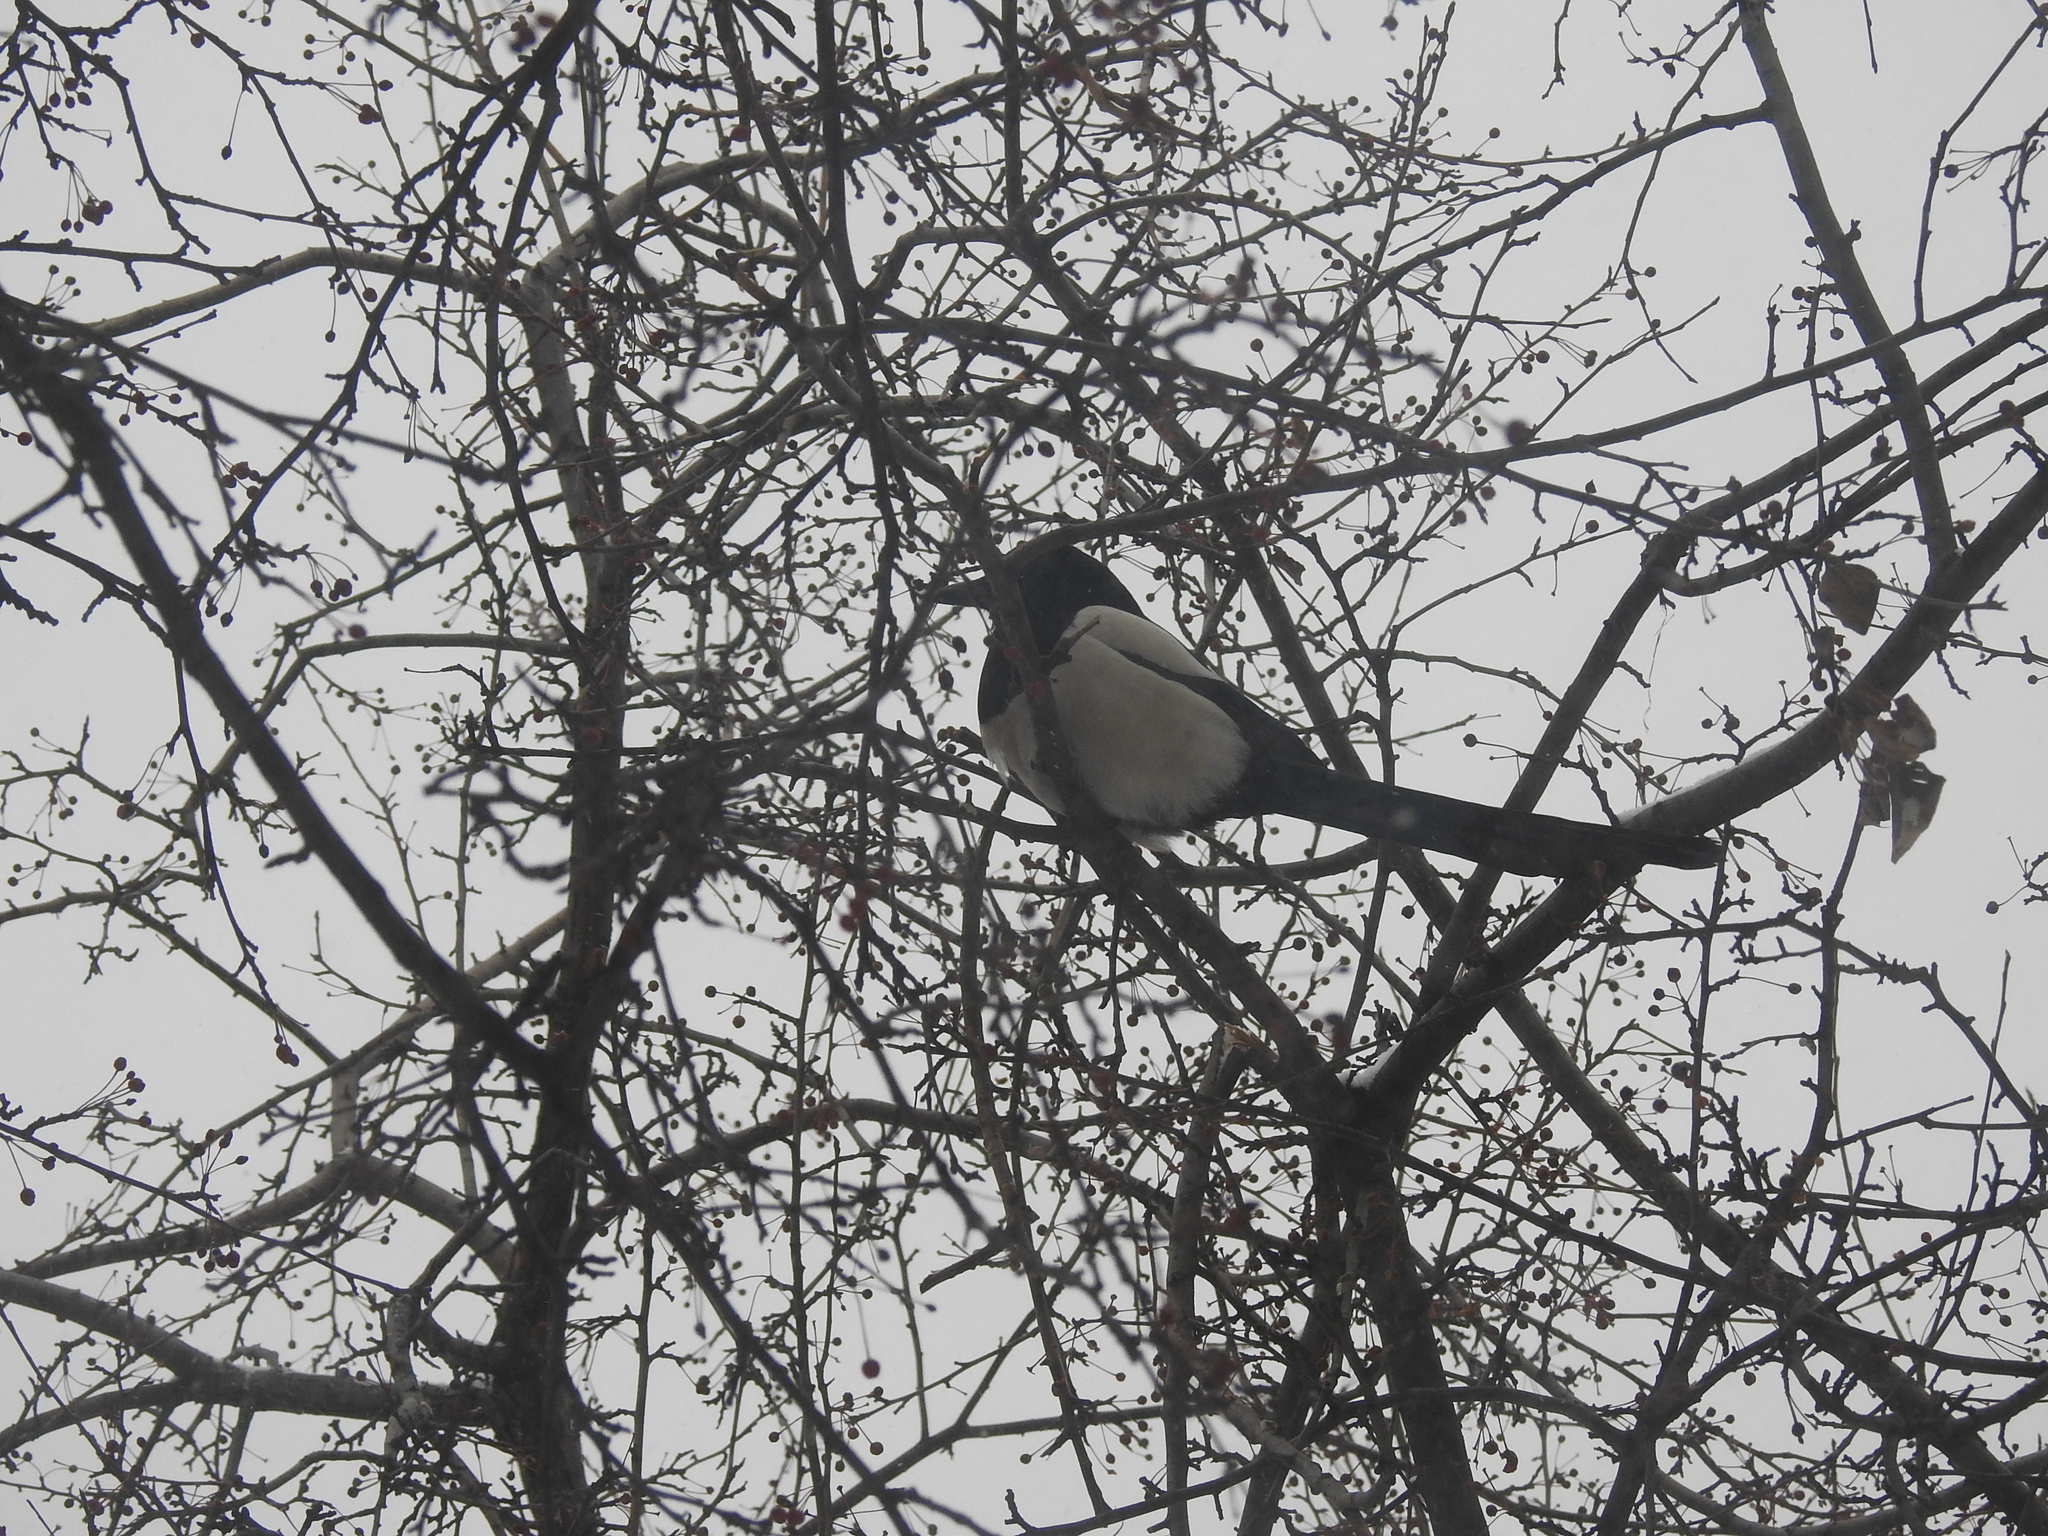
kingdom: Animalia
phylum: Chordata
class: Aves
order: Passeriformes
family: Corvidae
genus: Pica
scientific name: Pica pica
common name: Eurasian magpie
